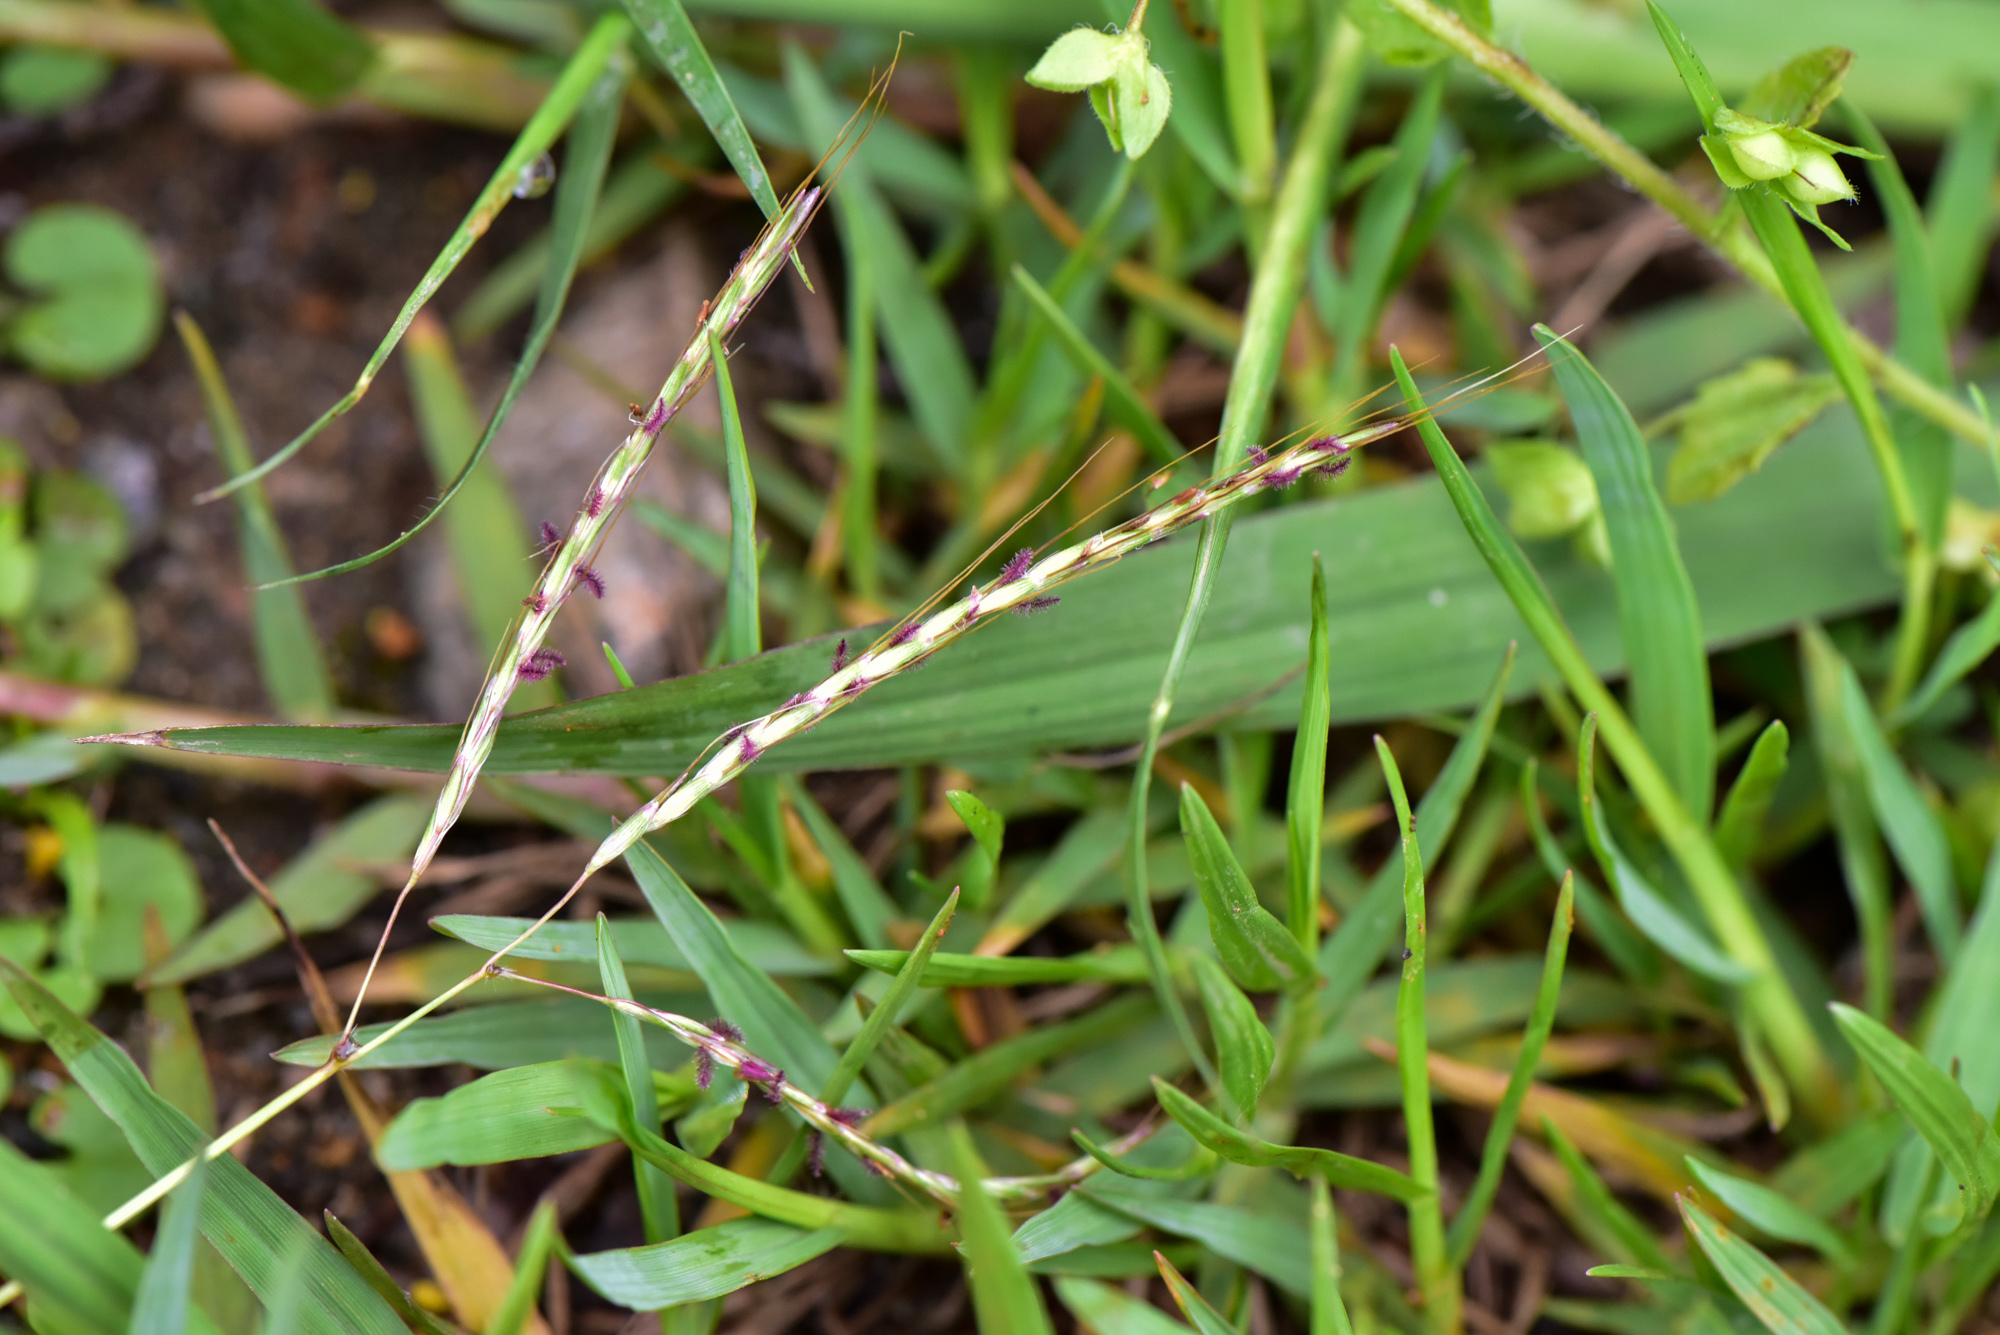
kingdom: Plantae
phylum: Tracheophyta
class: Liliopsida
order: Poales
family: Poaceae
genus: Bothriochloa
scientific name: Bothriochloa ischaemum
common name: Yellow bluestem
